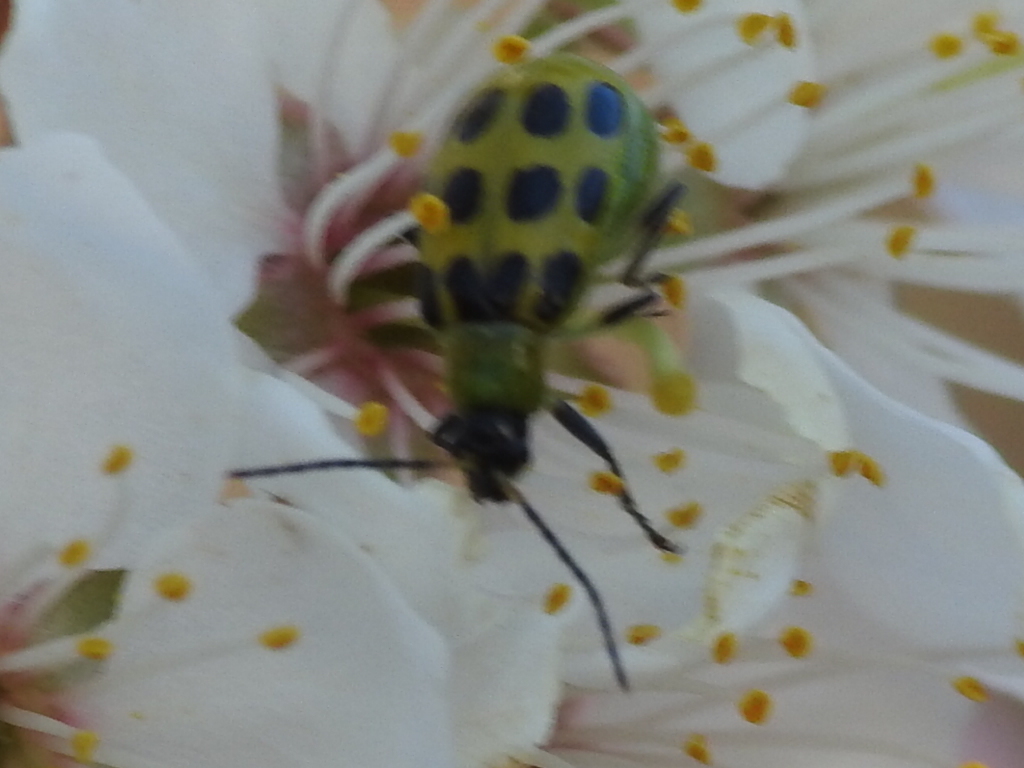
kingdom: Animalia
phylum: Arthropoda
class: Insecta
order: Coleoptera
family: Chrysomelidae
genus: Diabrotica
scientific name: Diabrotica undecimpunctata
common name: Spotted cucumber beetle
